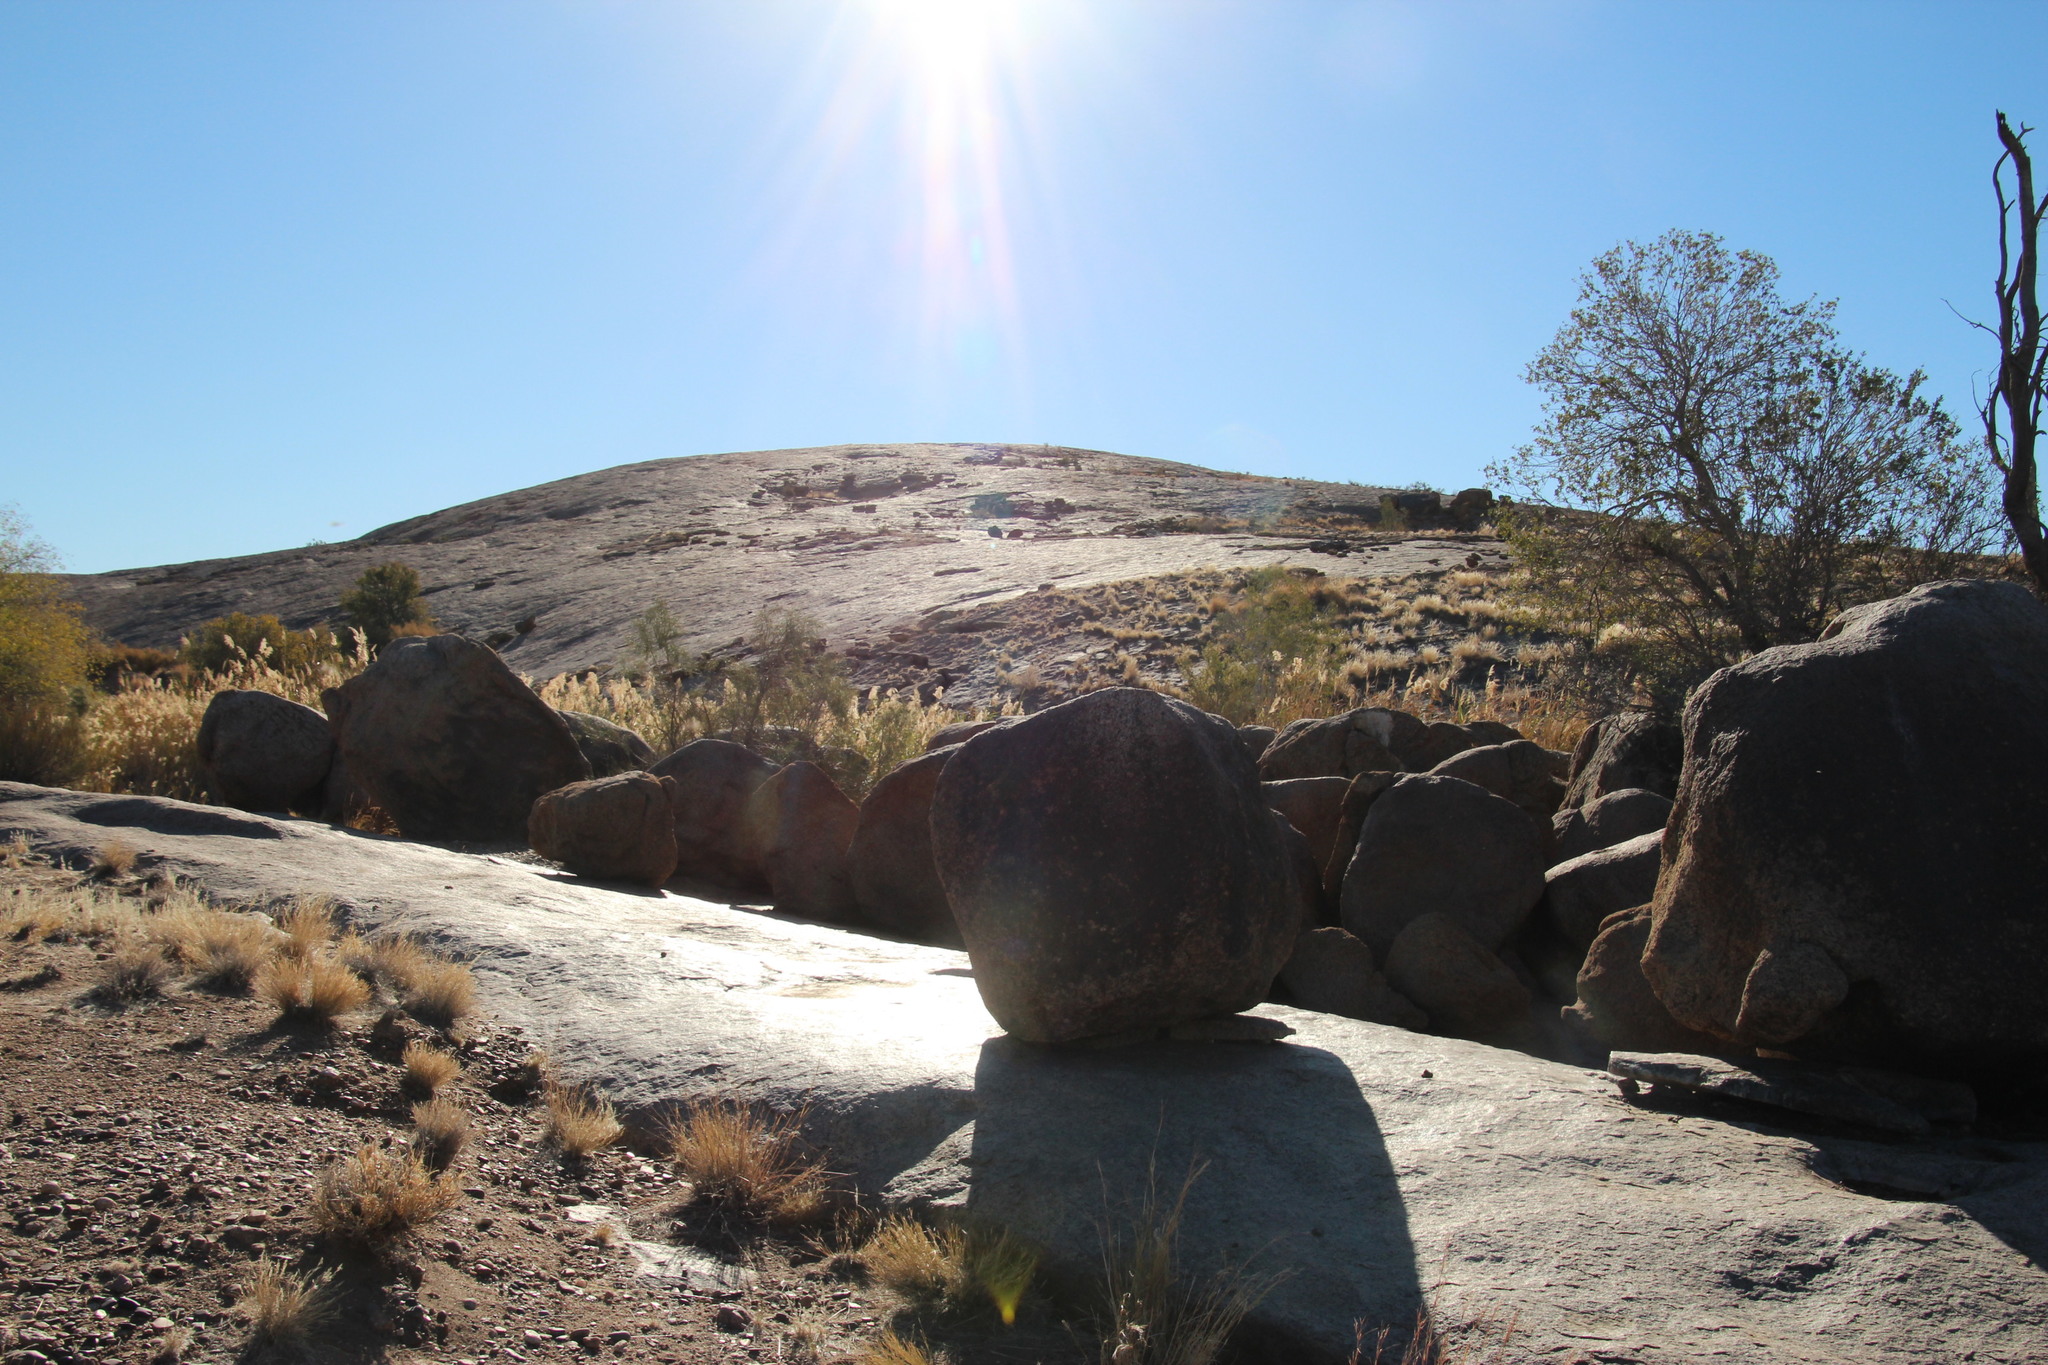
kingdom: Plantae
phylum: Tracheophyta
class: Liliopsida
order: Poales
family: Poaceae
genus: Phragmites
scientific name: Phragmites australis
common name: Common reed
